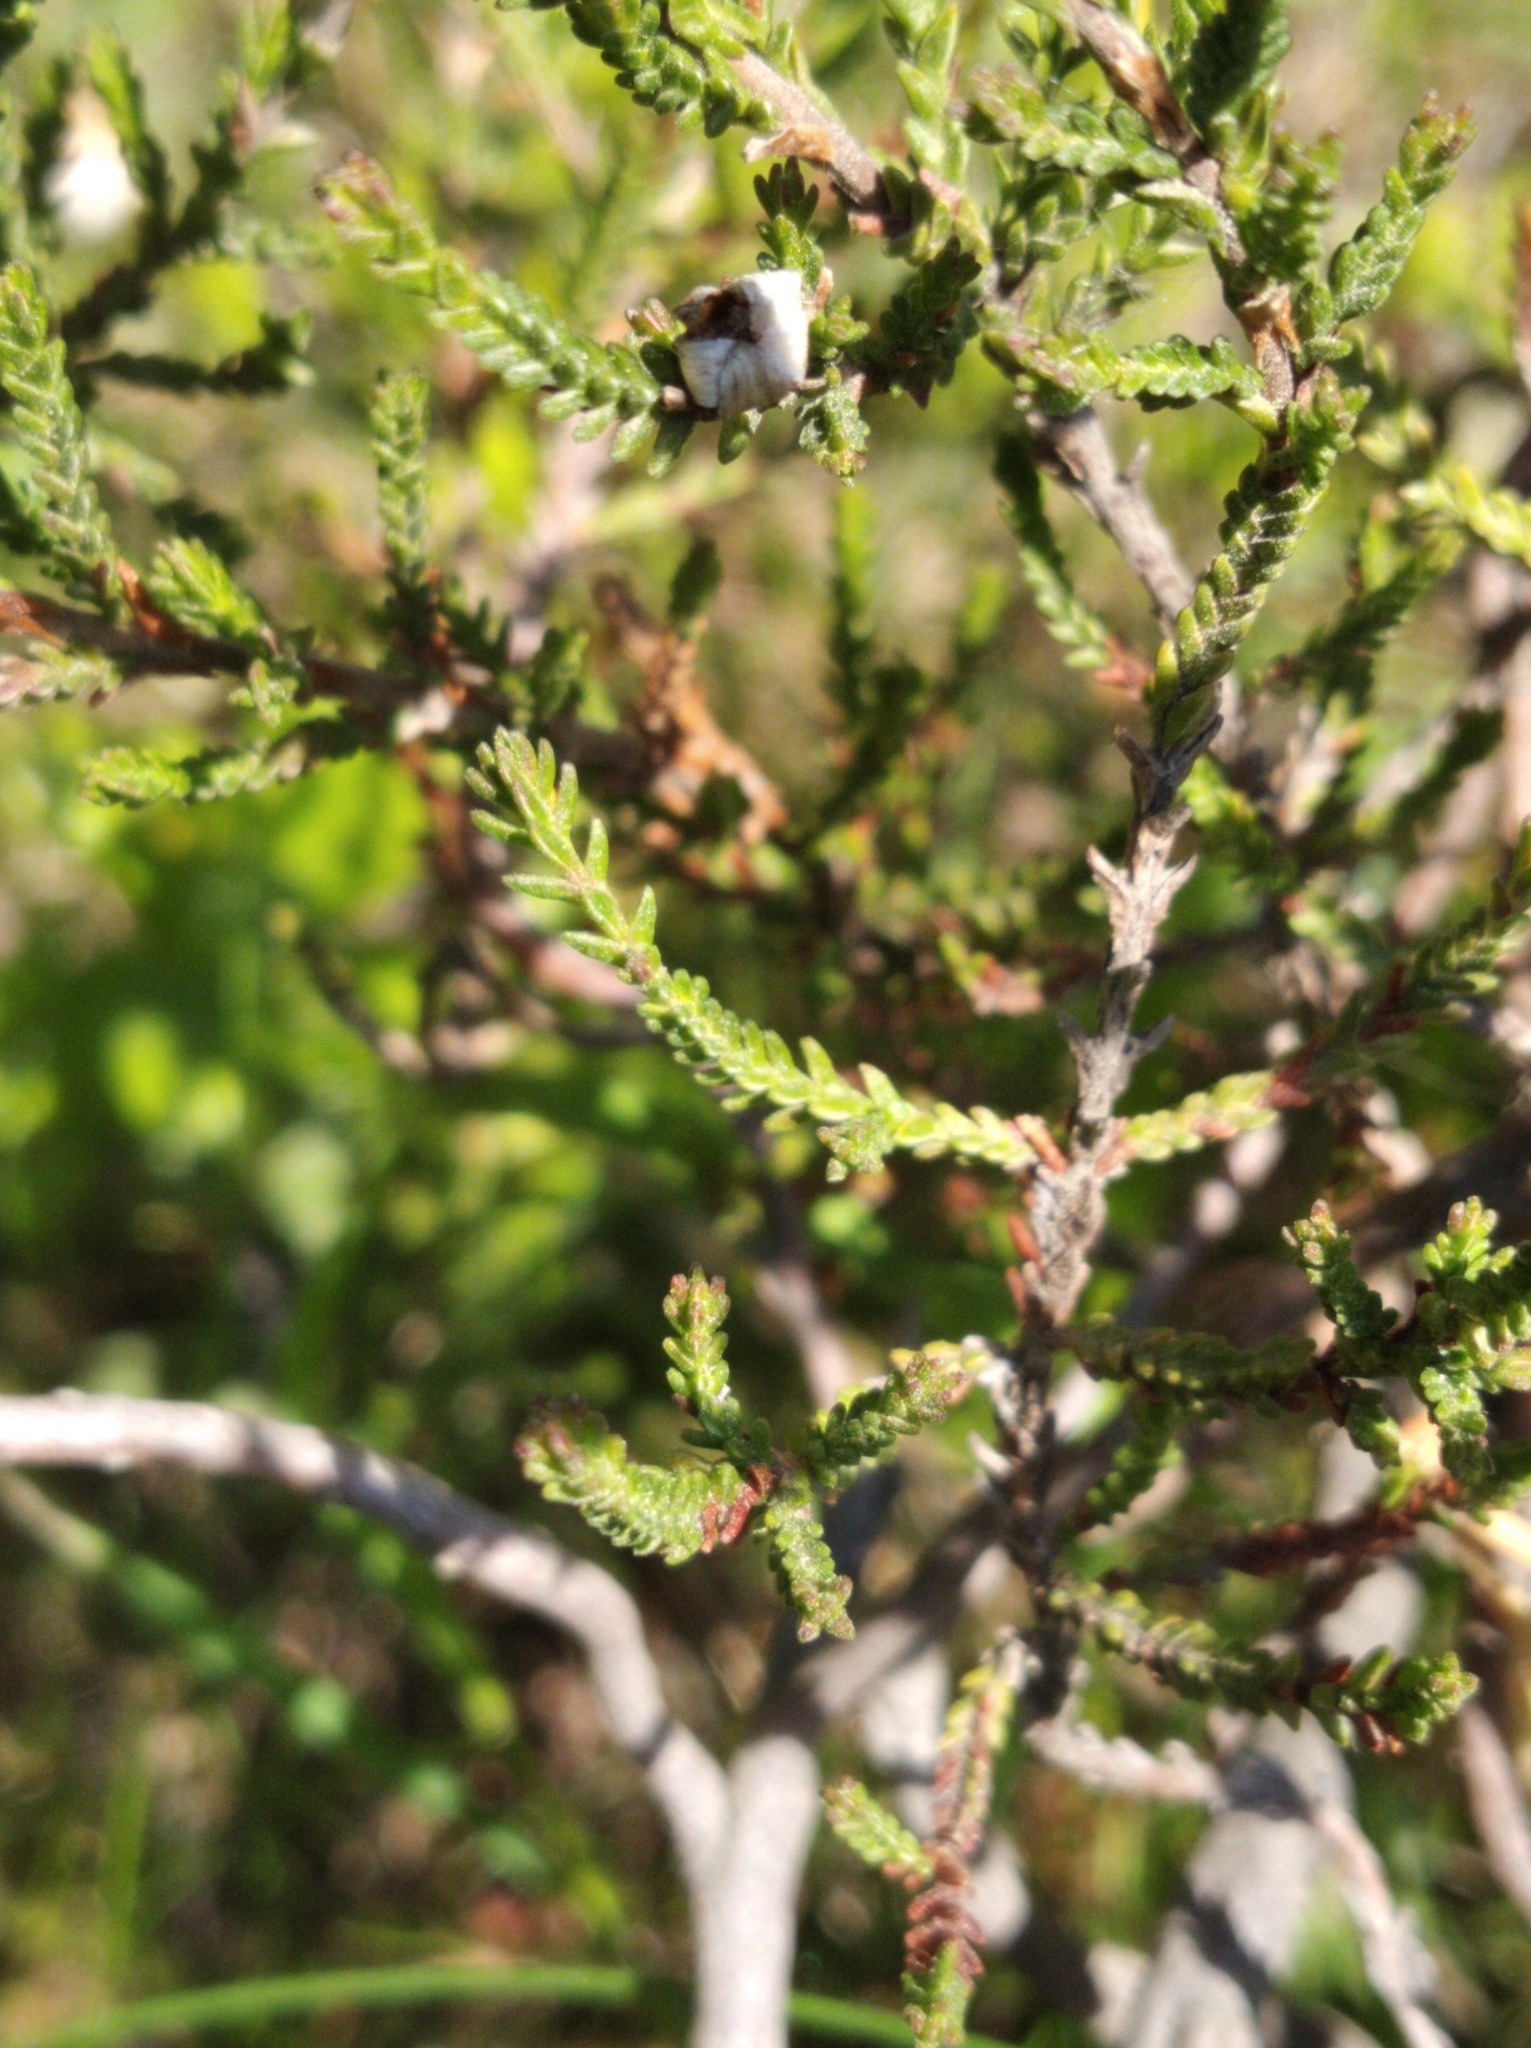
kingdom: Plantae
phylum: Tracheophyta
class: Magnoliopsida
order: Ericales
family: Ericaceae
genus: Calluna
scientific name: Calluna vulgaris
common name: Heather
